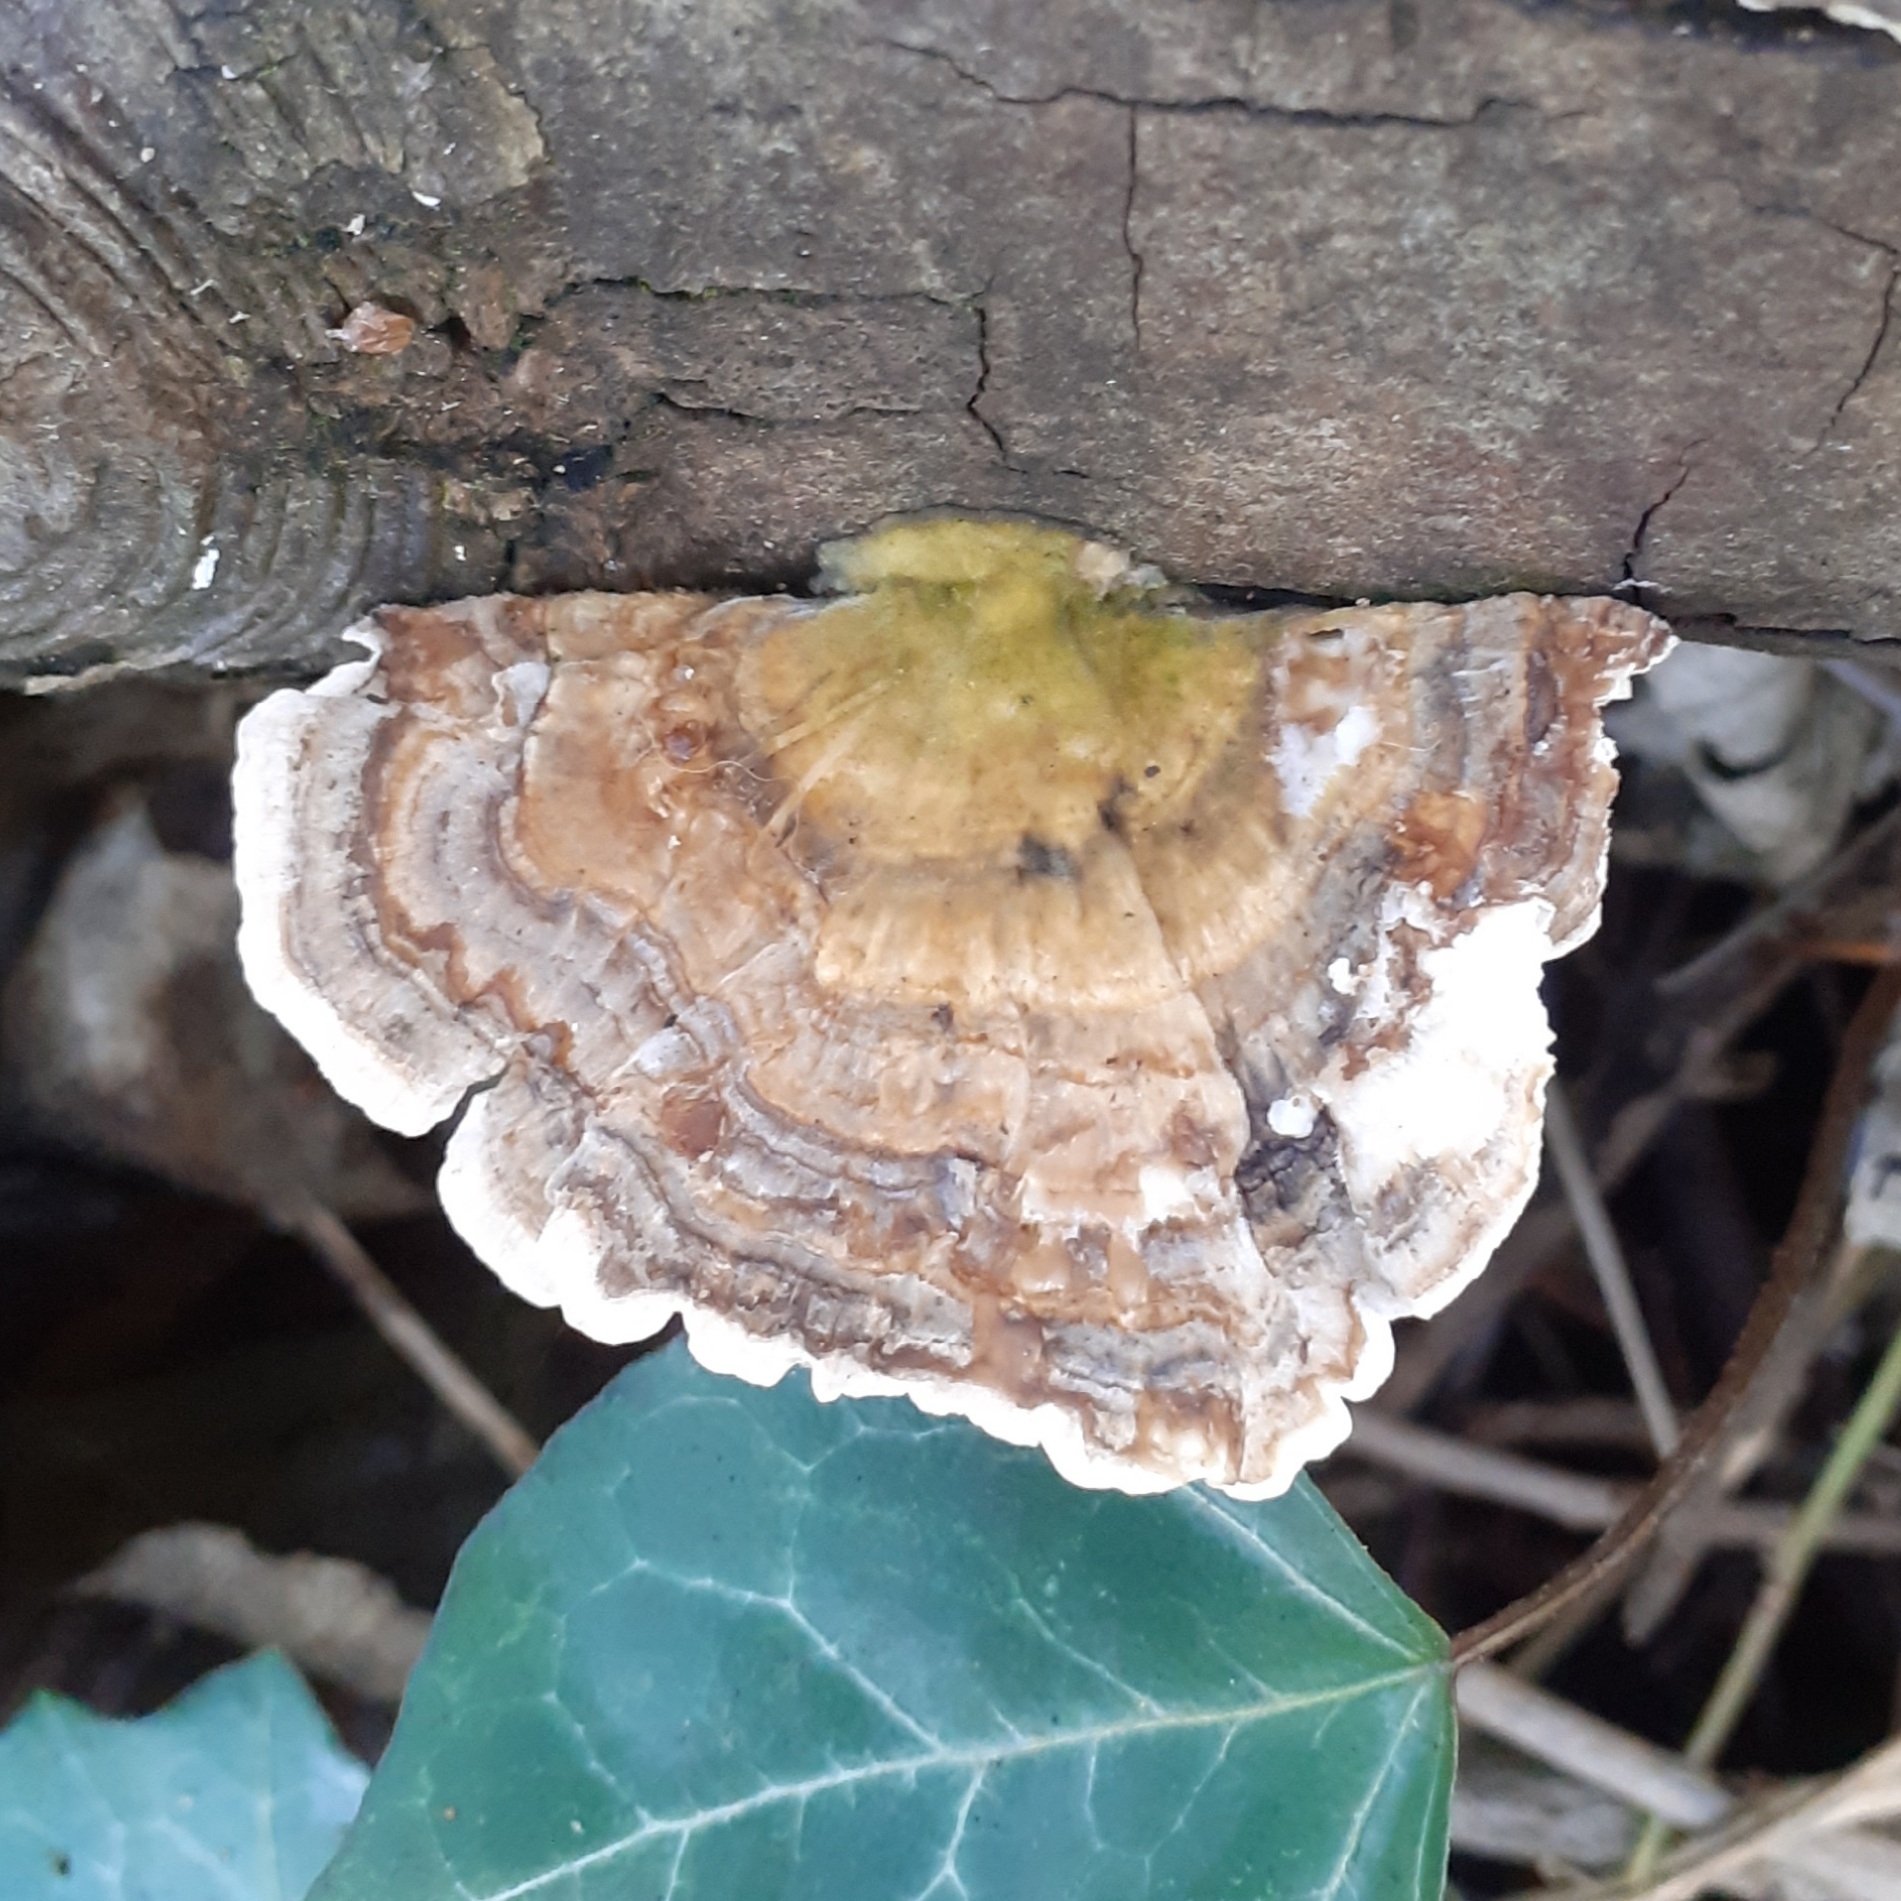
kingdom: Fungi
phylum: Basidiomycota
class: Agaricomycetes
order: Polyporales
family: Polyporaceae
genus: Trametes
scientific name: Trametes versicolor
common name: Turkeytail
